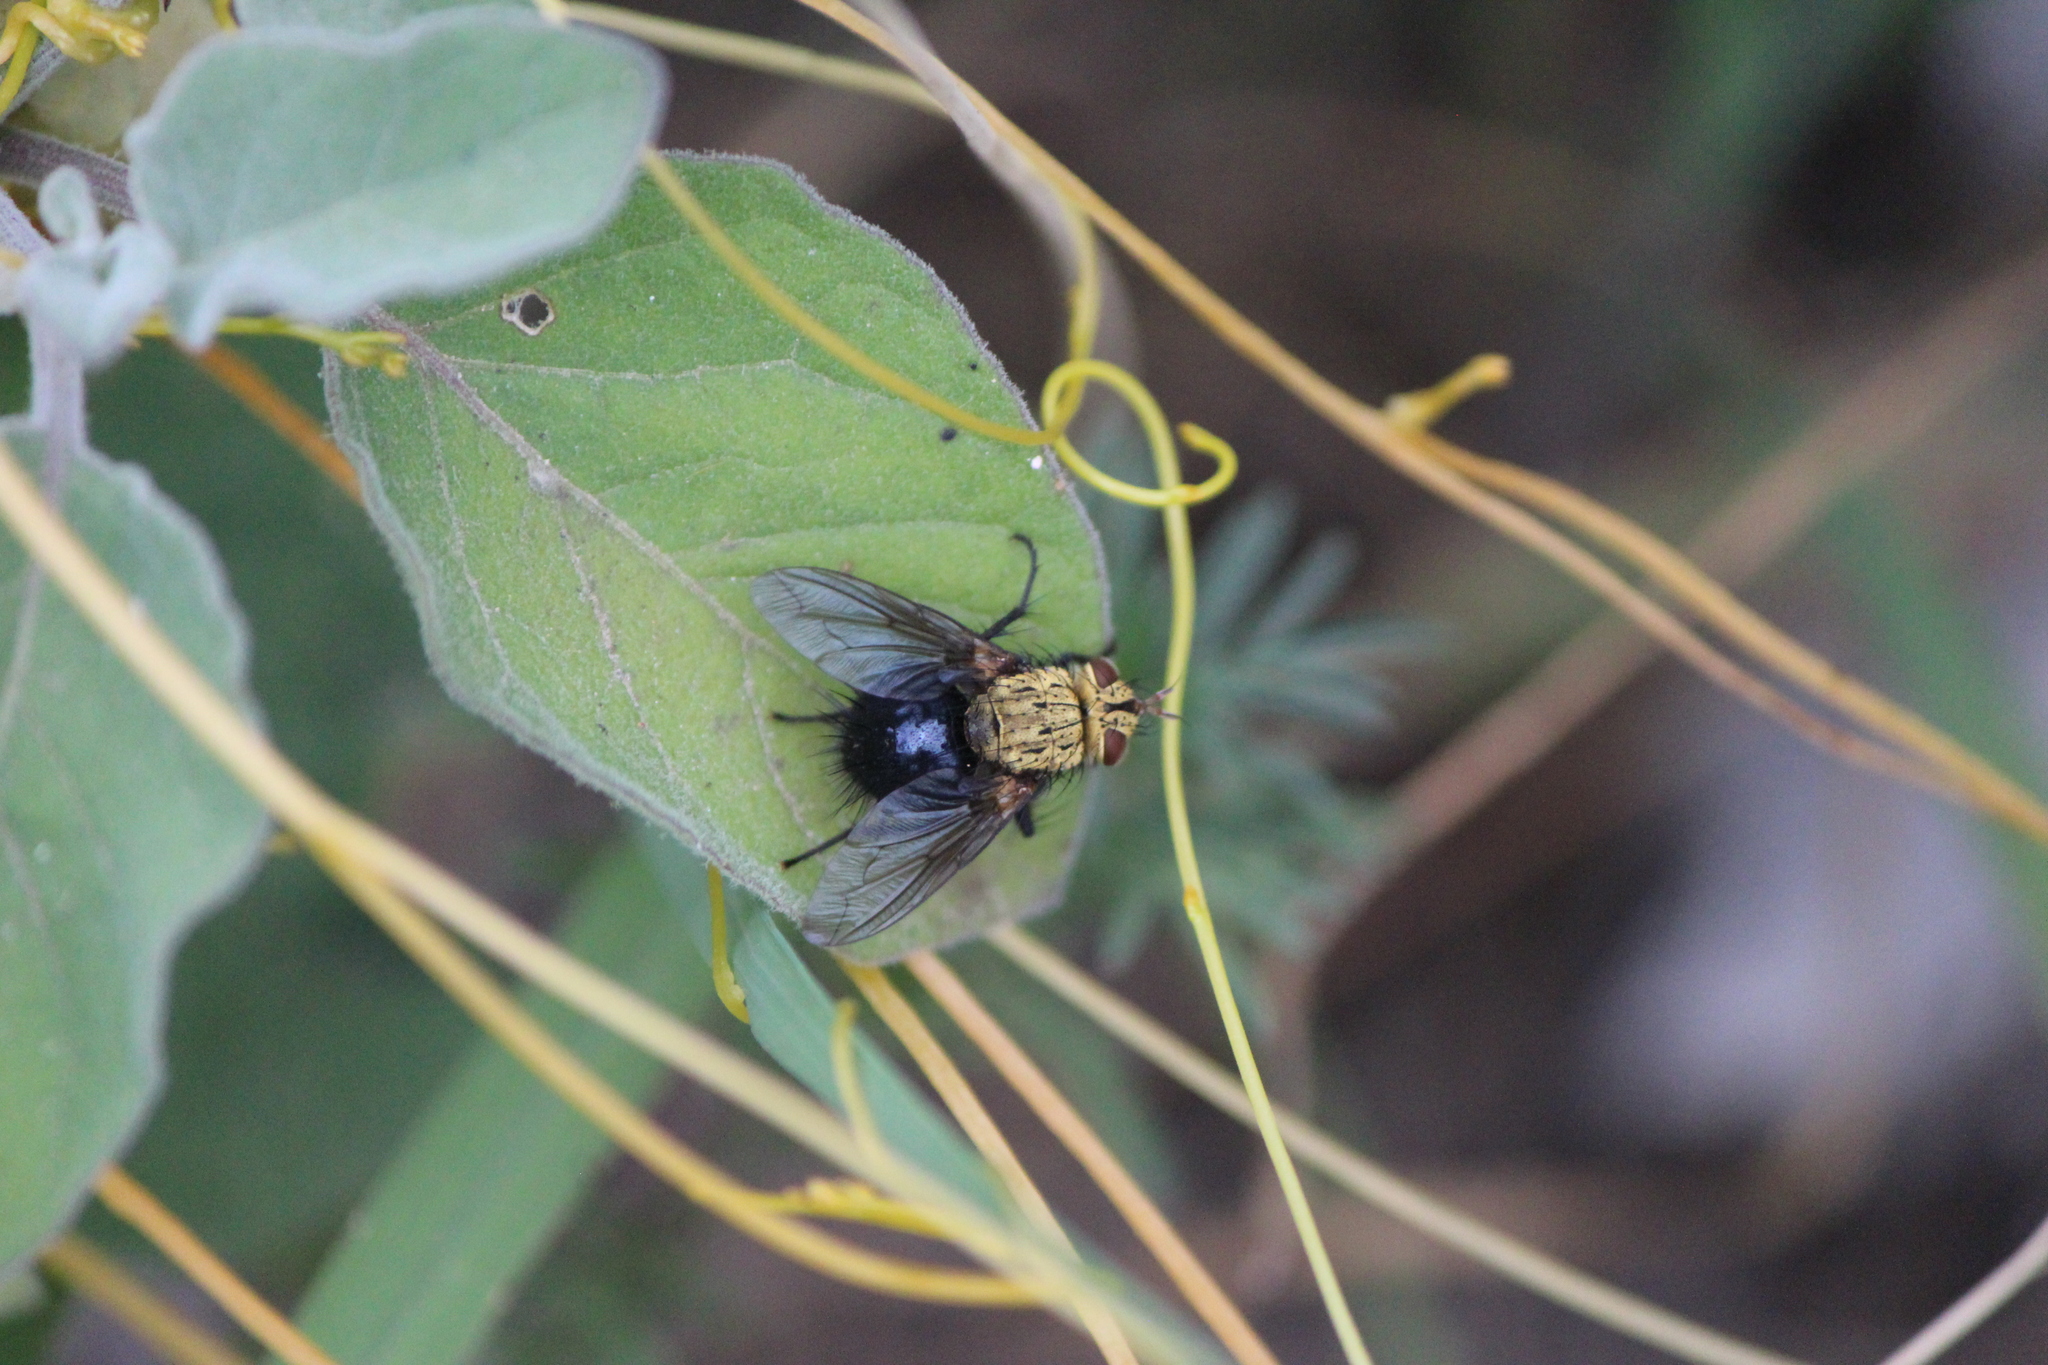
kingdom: Animalia
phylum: Arthropoda
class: Insecta
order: Diptera
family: Tachinidae
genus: Archytas
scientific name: Archytas apicifer
